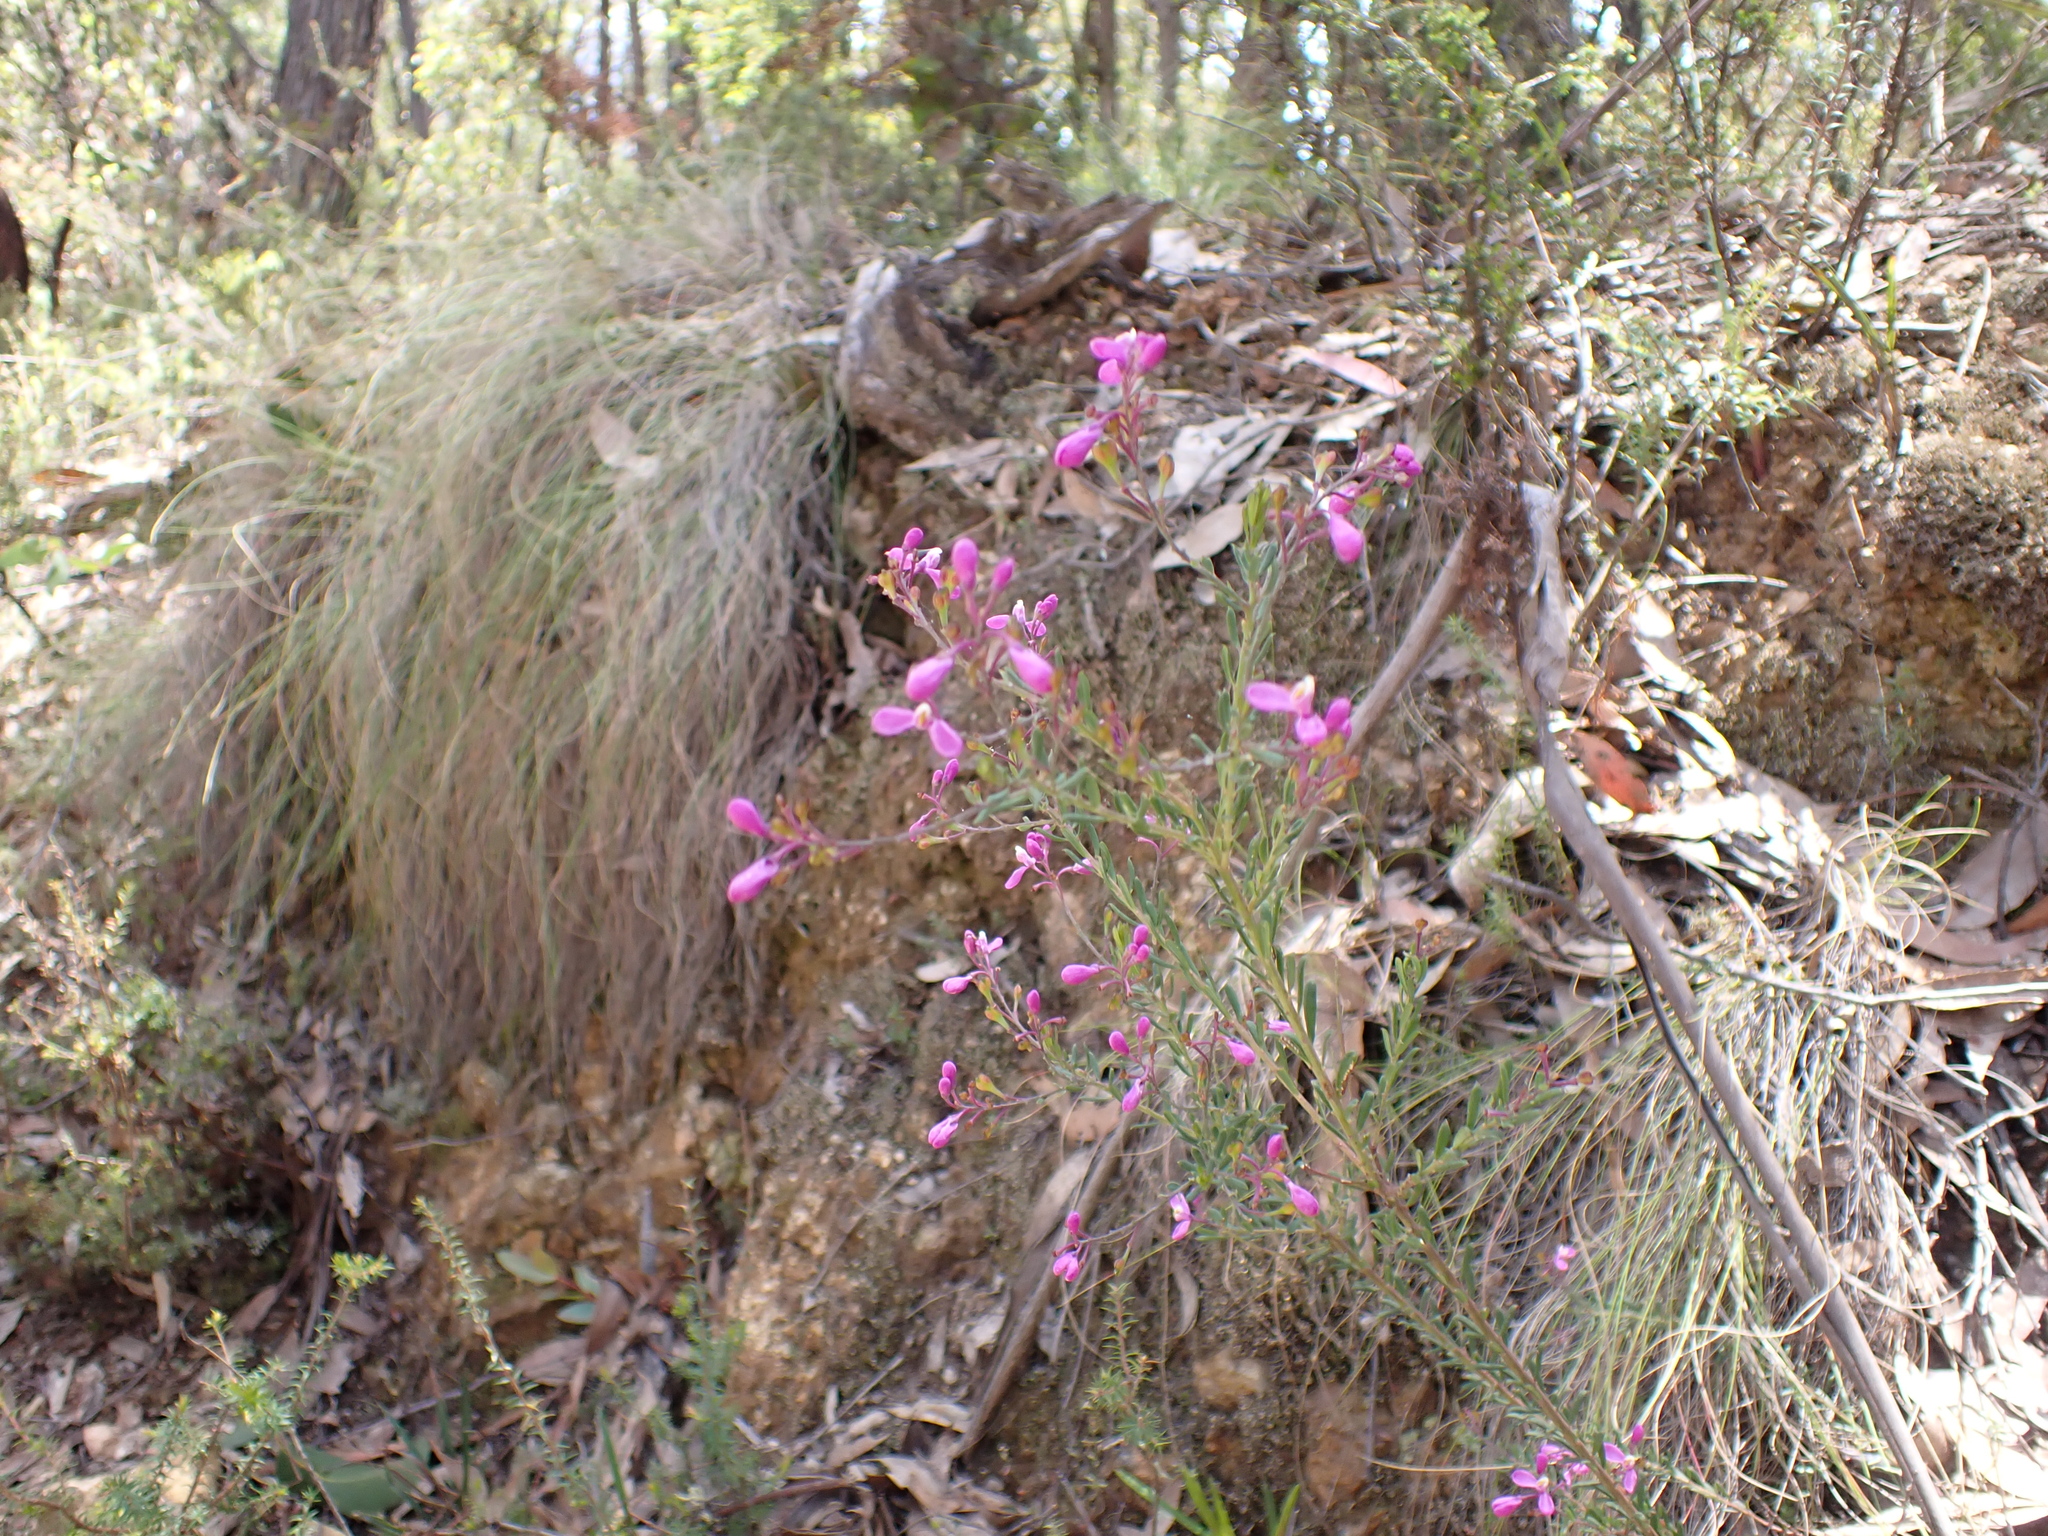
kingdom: Plantae
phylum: Tracheophyta
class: Magnoliopsida
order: Fabales
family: Polygalaceae
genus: Comesperma
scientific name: Comesperma ericinum
